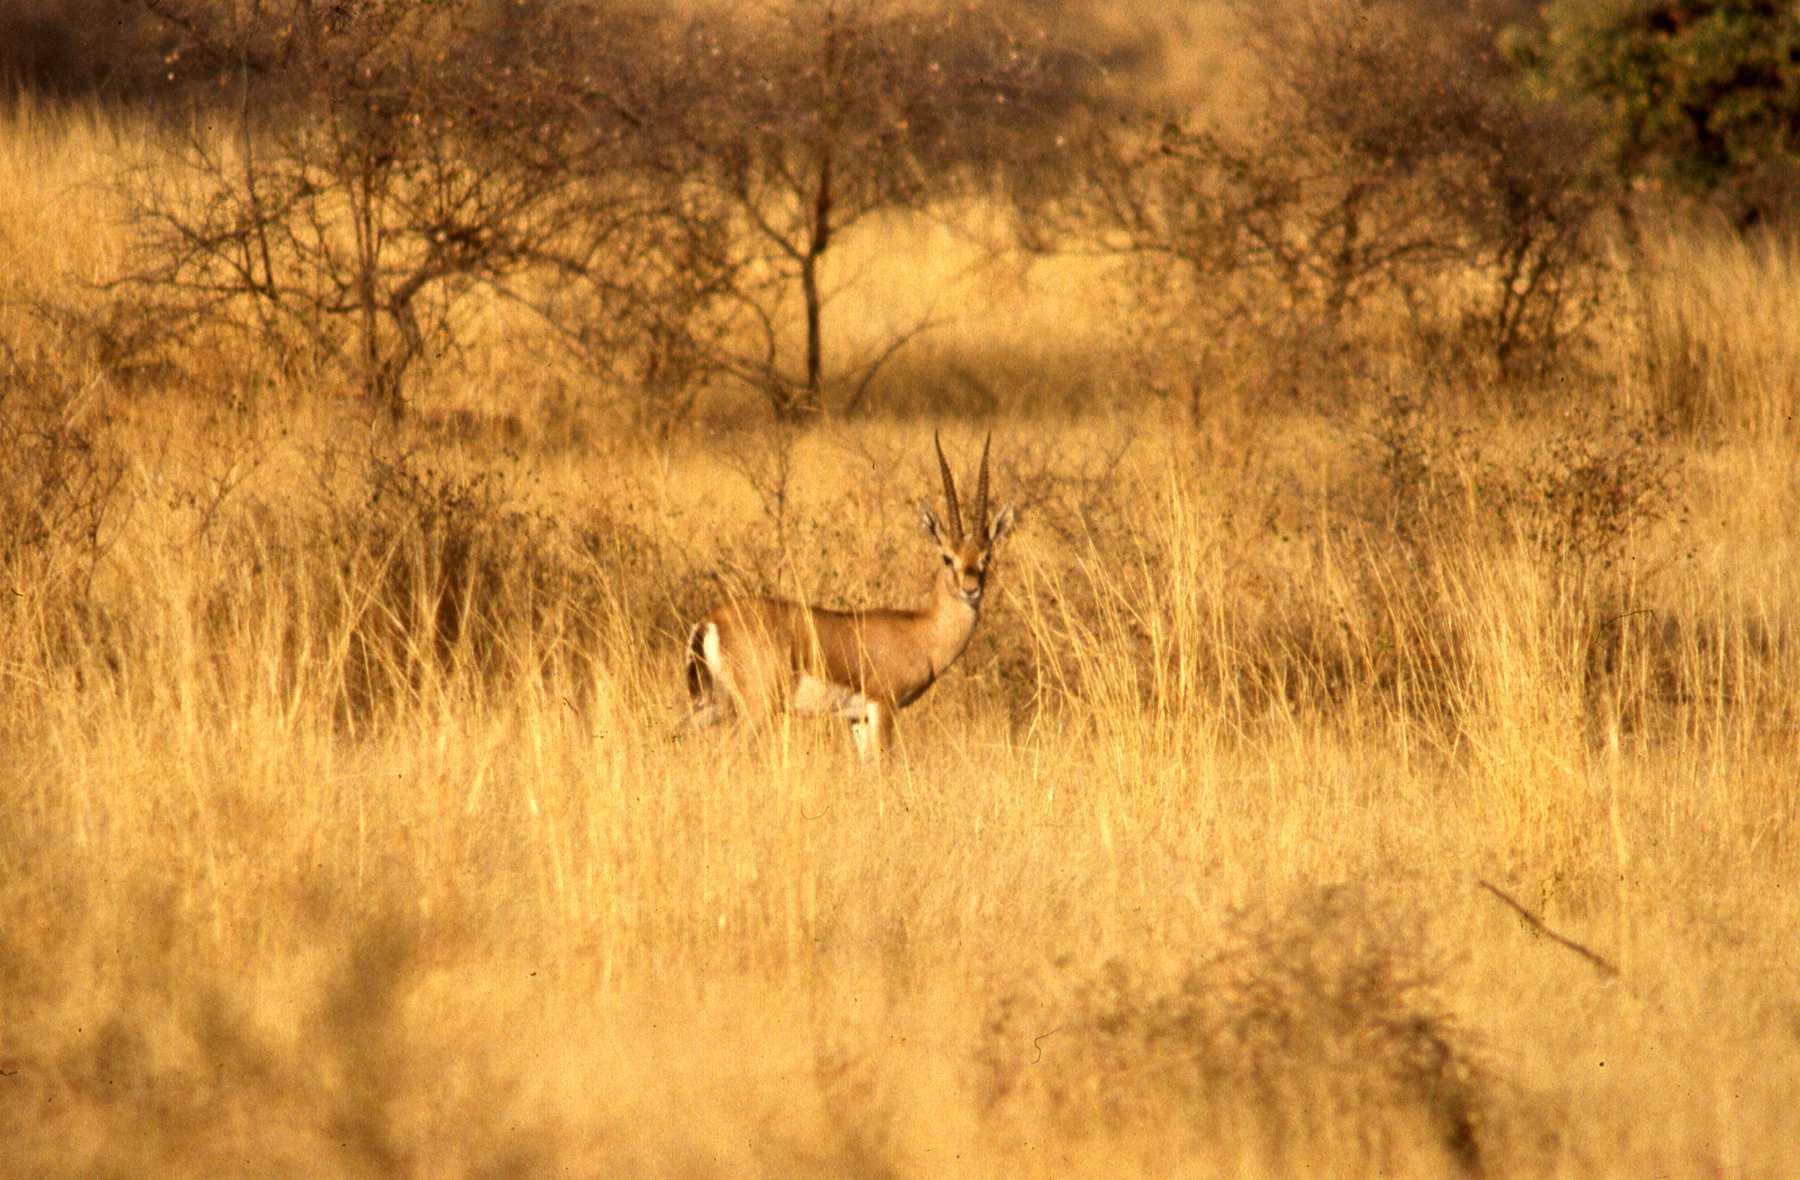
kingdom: Animalia
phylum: Chordata
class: Mammalia
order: Artiodactyla
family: Bovidae
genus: Gazella
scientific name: Gazella bennettii
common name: Indian gazelle
